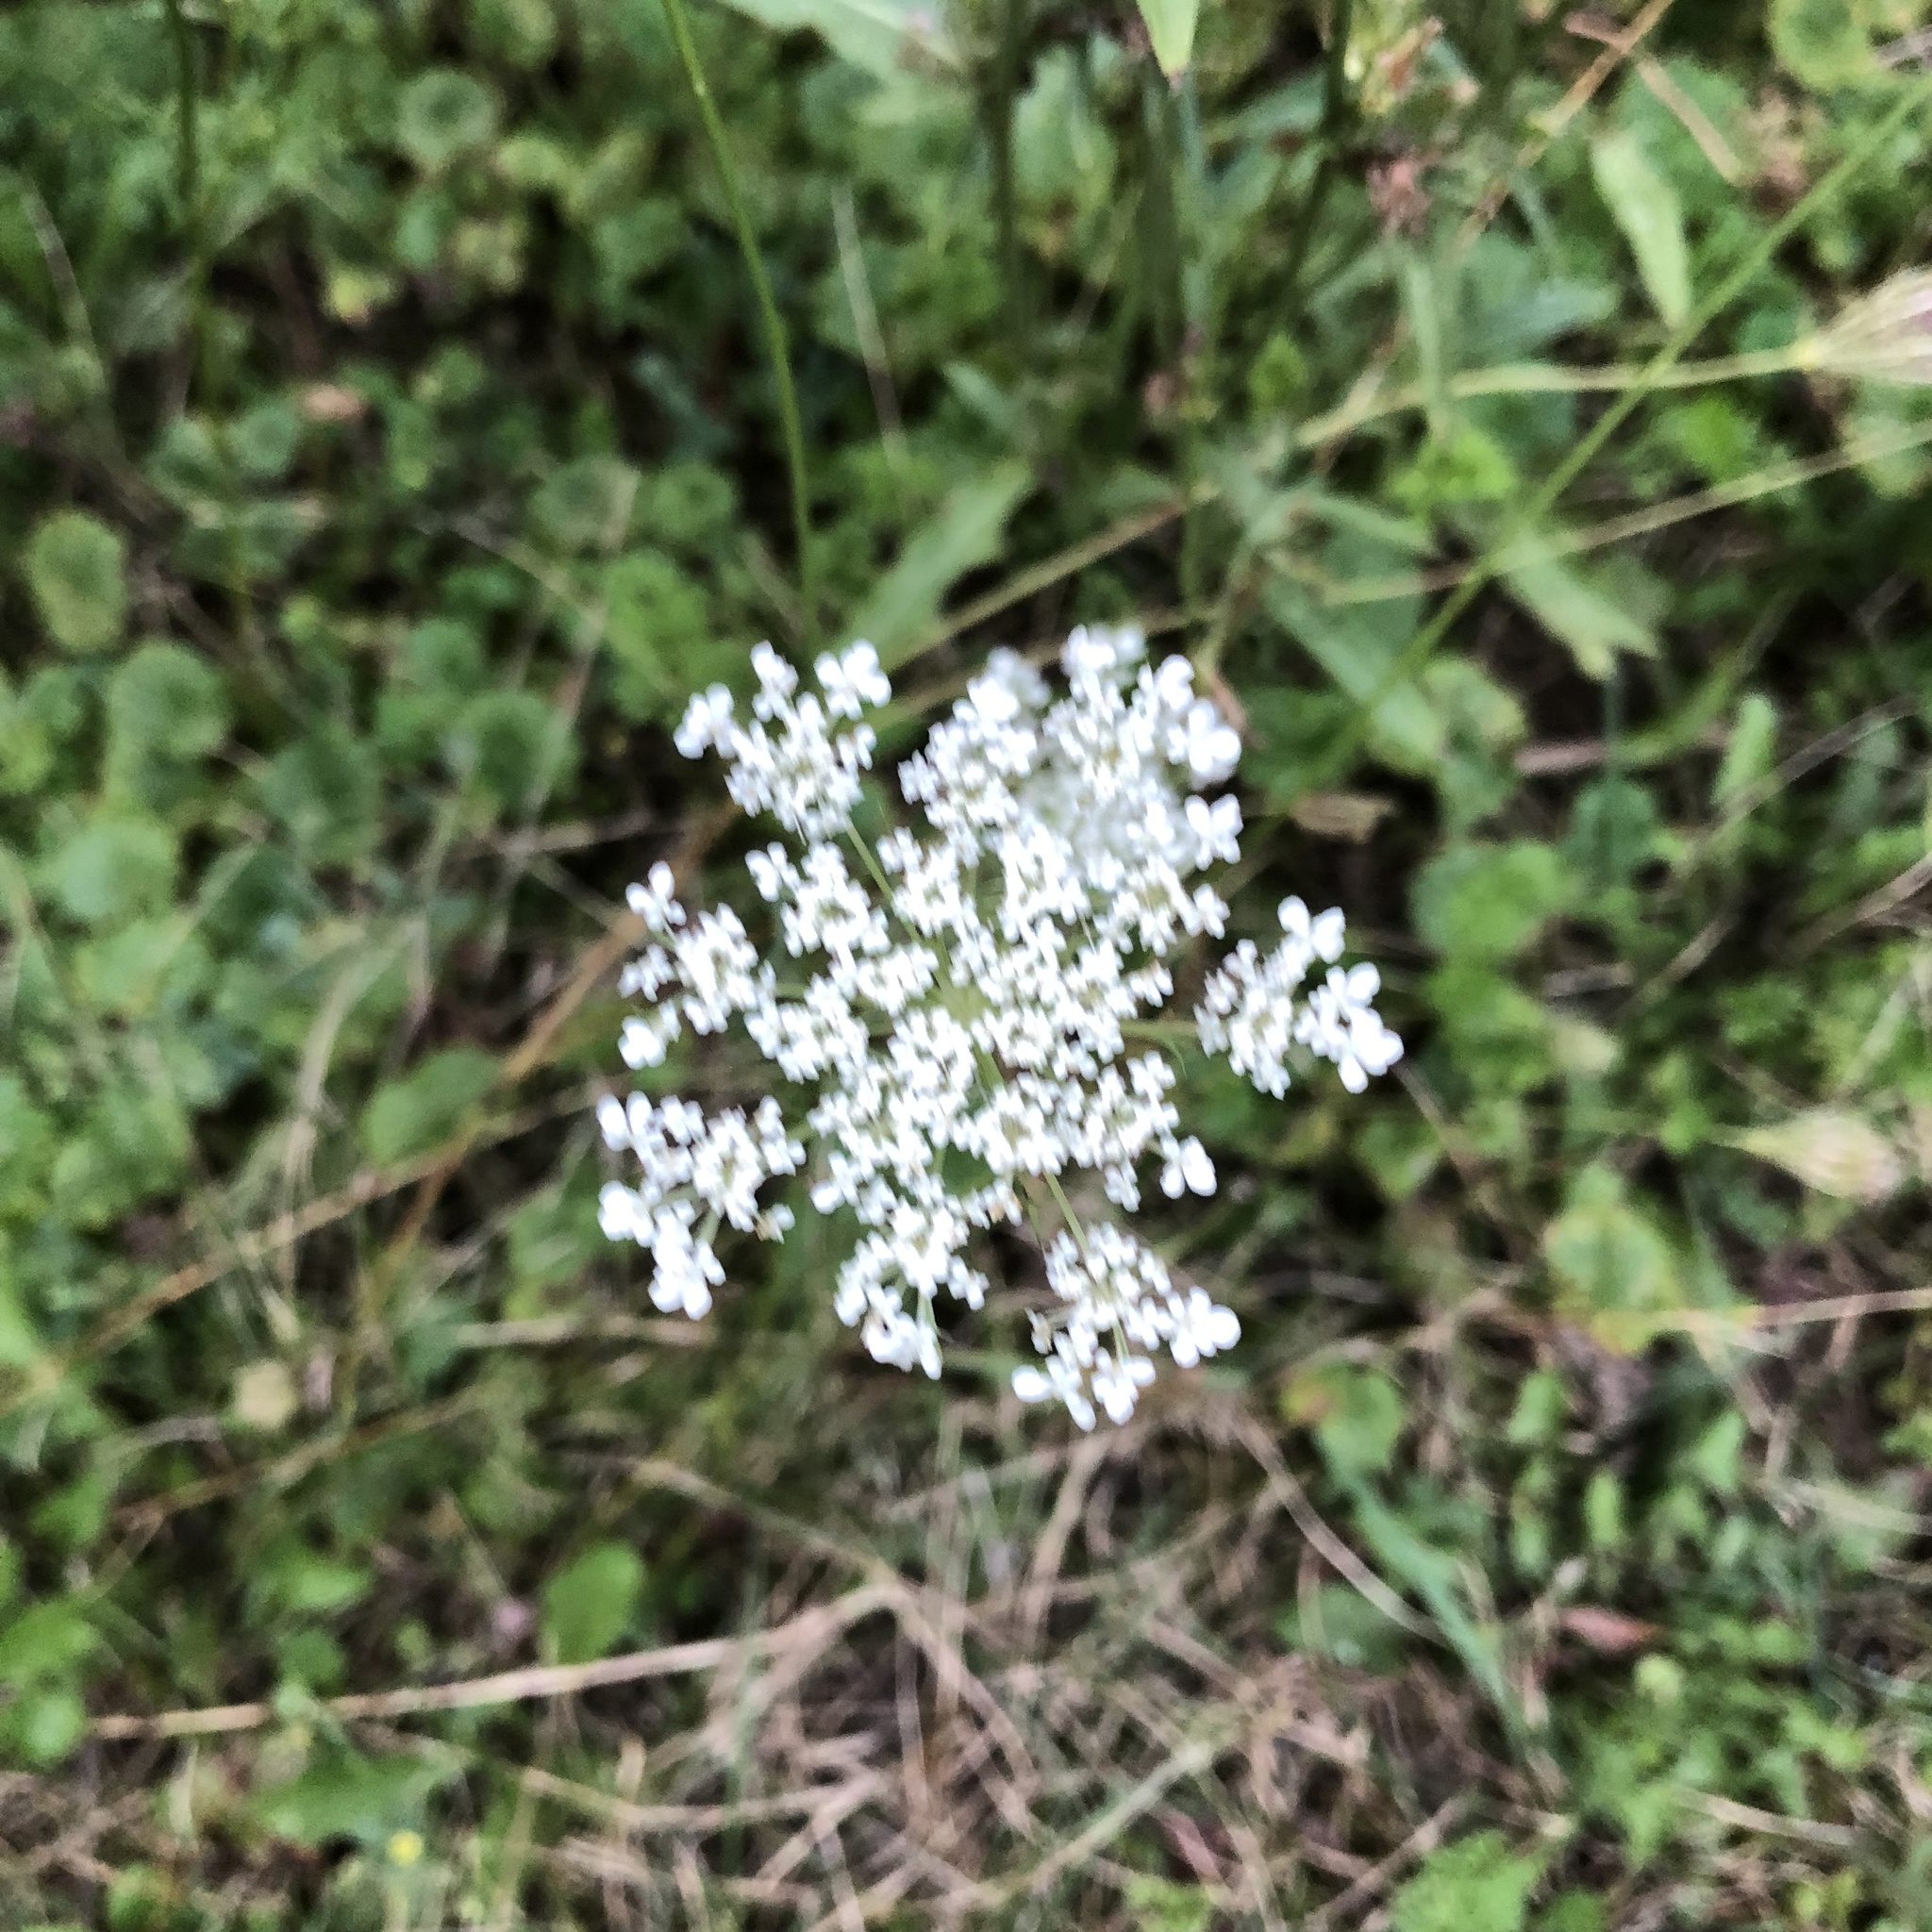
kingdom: Plantae
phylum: Tracheophyta
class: Magnoliopsida
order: Apiales
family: Apiaceae
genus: Daucus
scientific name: Daucus carota
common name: Wild carrot
